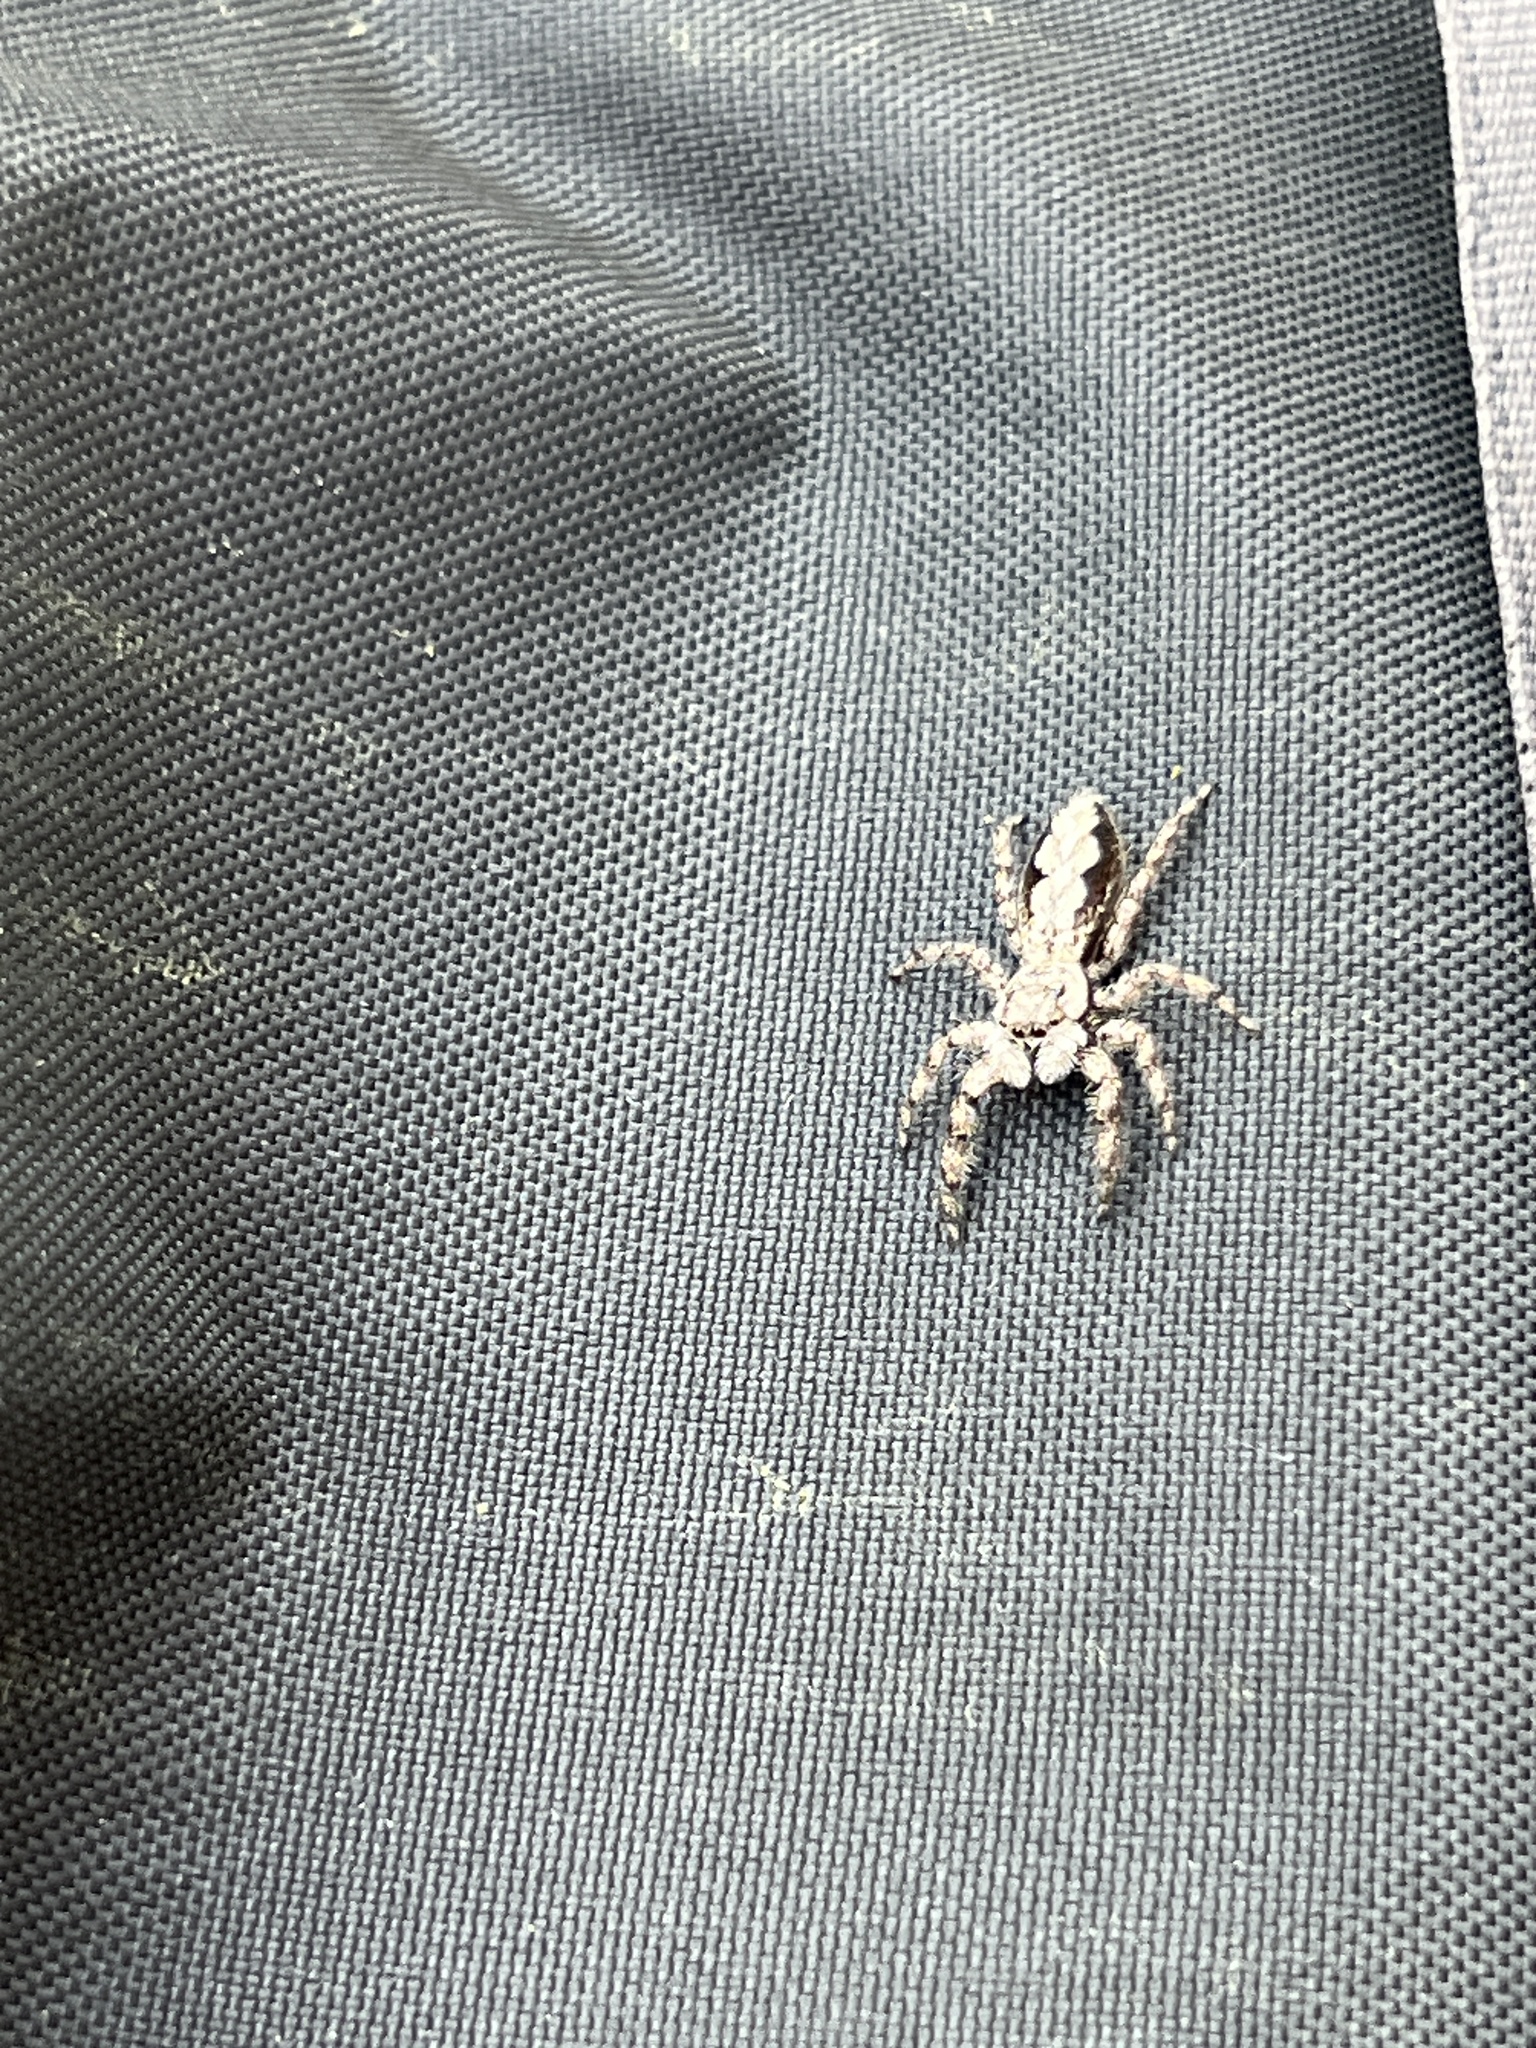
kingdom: Animalia
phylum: Arthropoda
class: Arachnida
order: Araneae
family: Salticidae
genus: Platycryptus
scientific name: Platycryptus undatus
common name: Tan jumping spider
